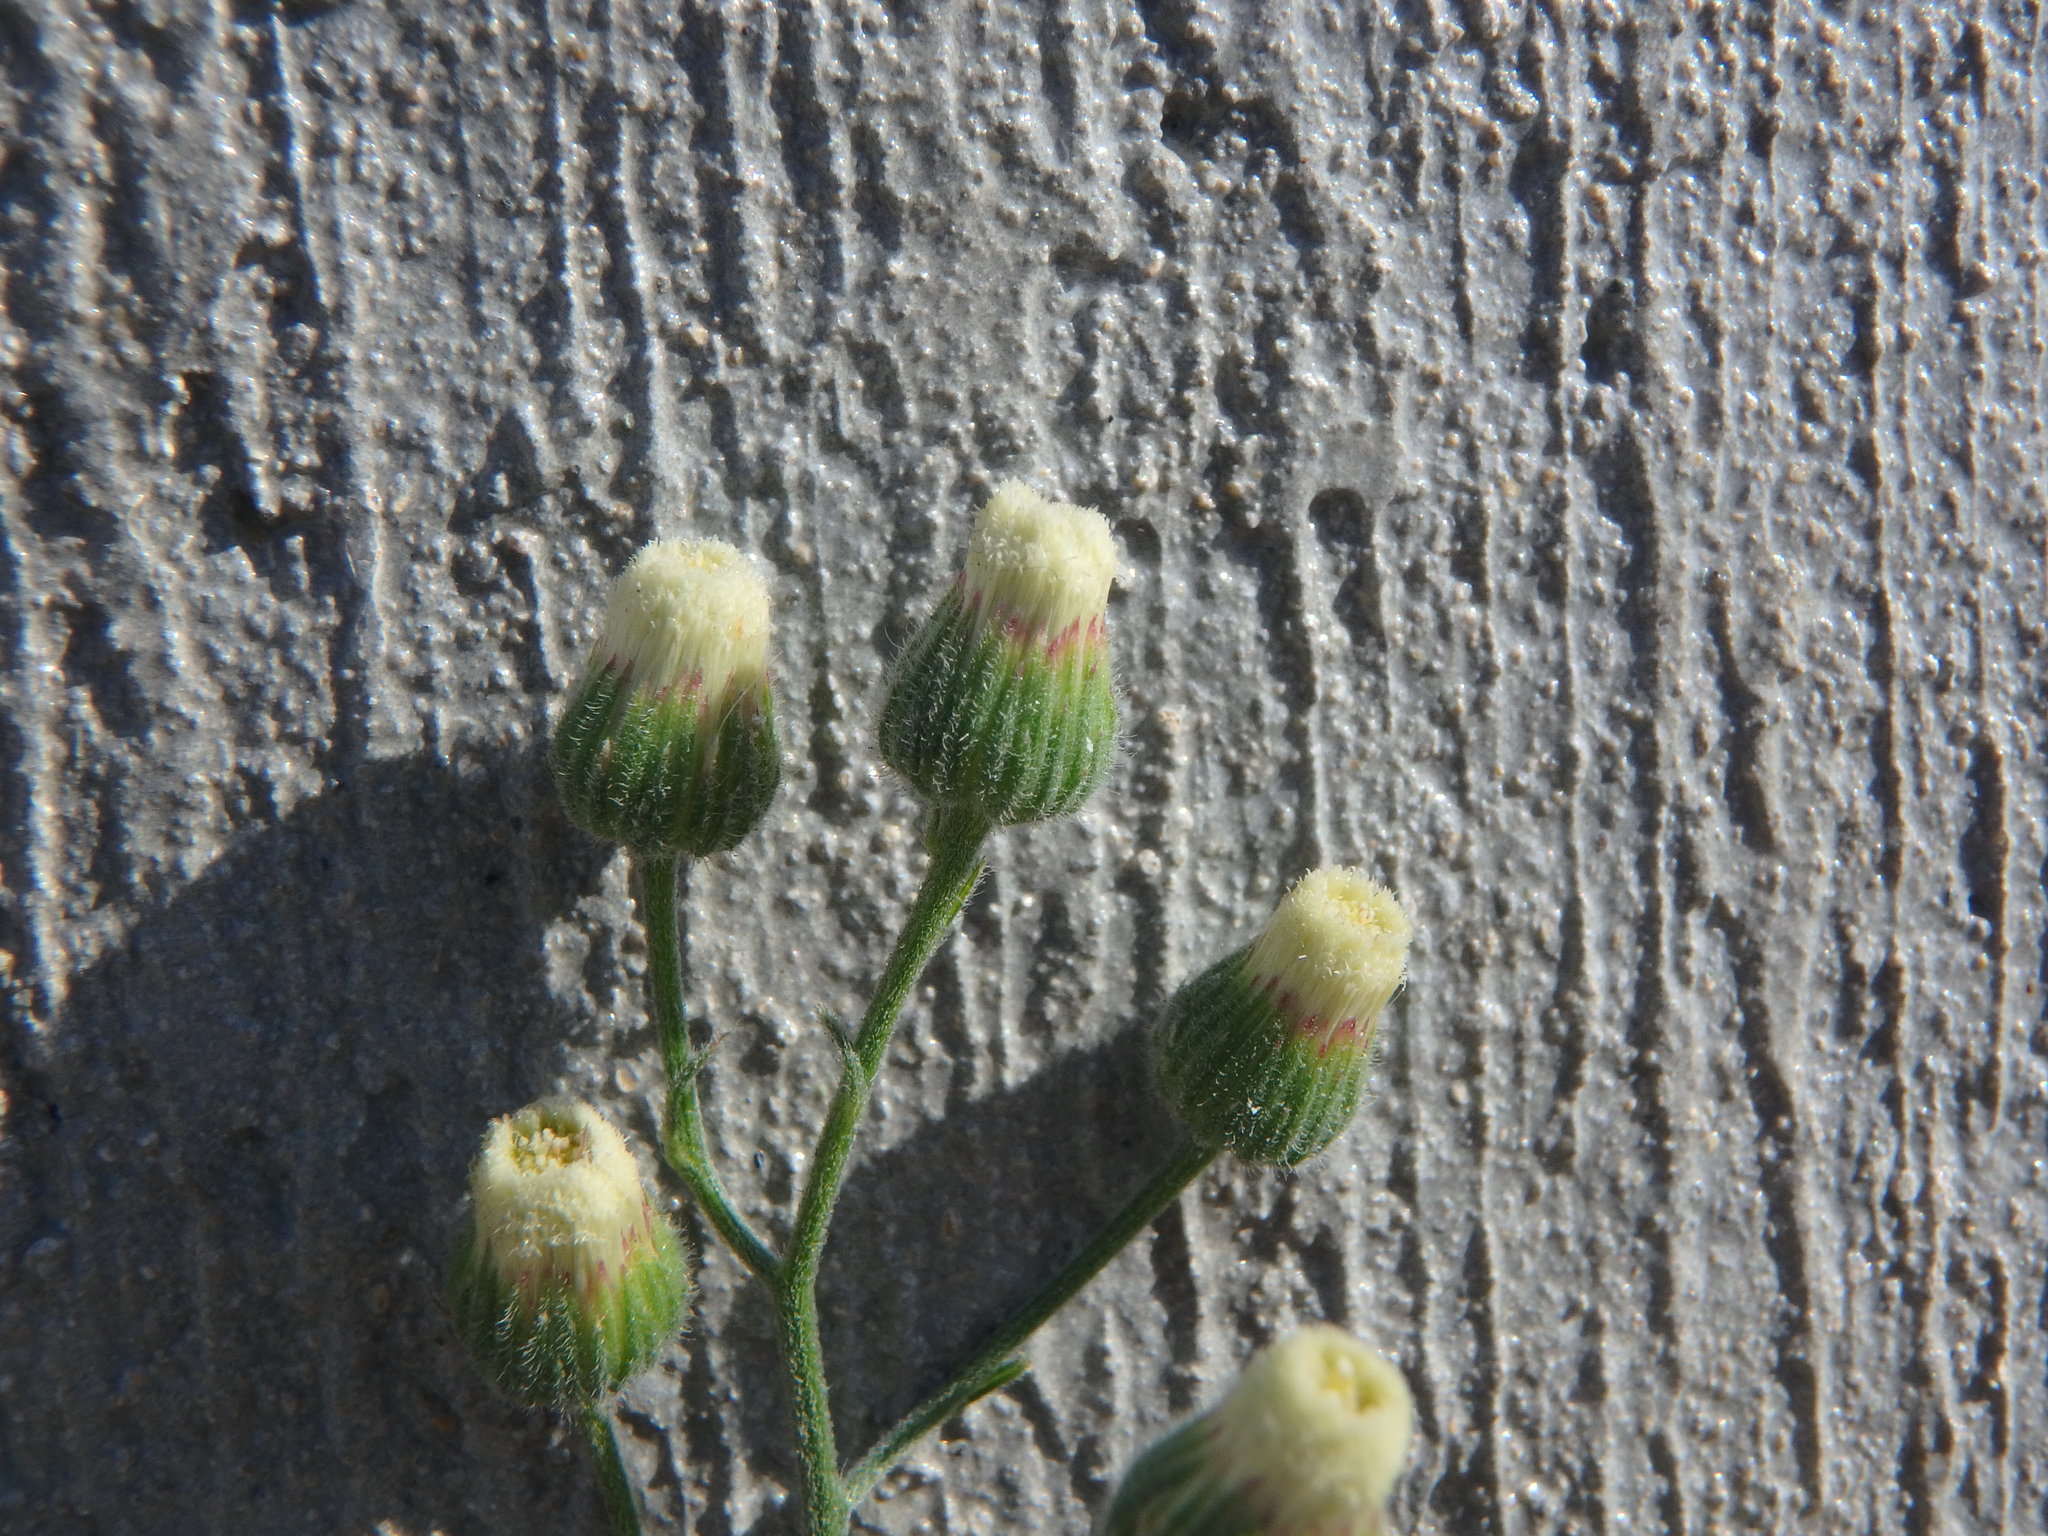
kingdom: Plantae
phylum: Tracheophyta
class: Magnoliopsida
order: Asterales
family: Asteraceae
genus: Erigeron
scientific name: Erigeron bonariensis
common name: Argentine fleabane
